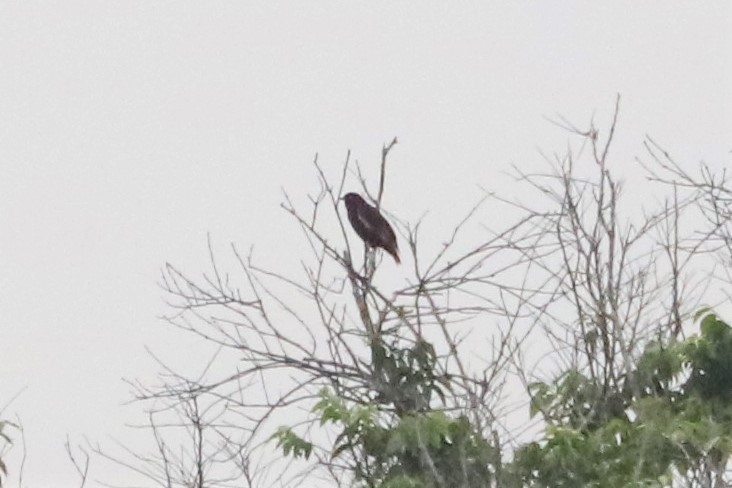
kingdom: Animalia
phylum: Chordata
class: Aves
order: Passeriformes
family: Cotingidae
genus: Xipholena
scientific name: Xipholena punicea
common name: Pompadour cotinga
